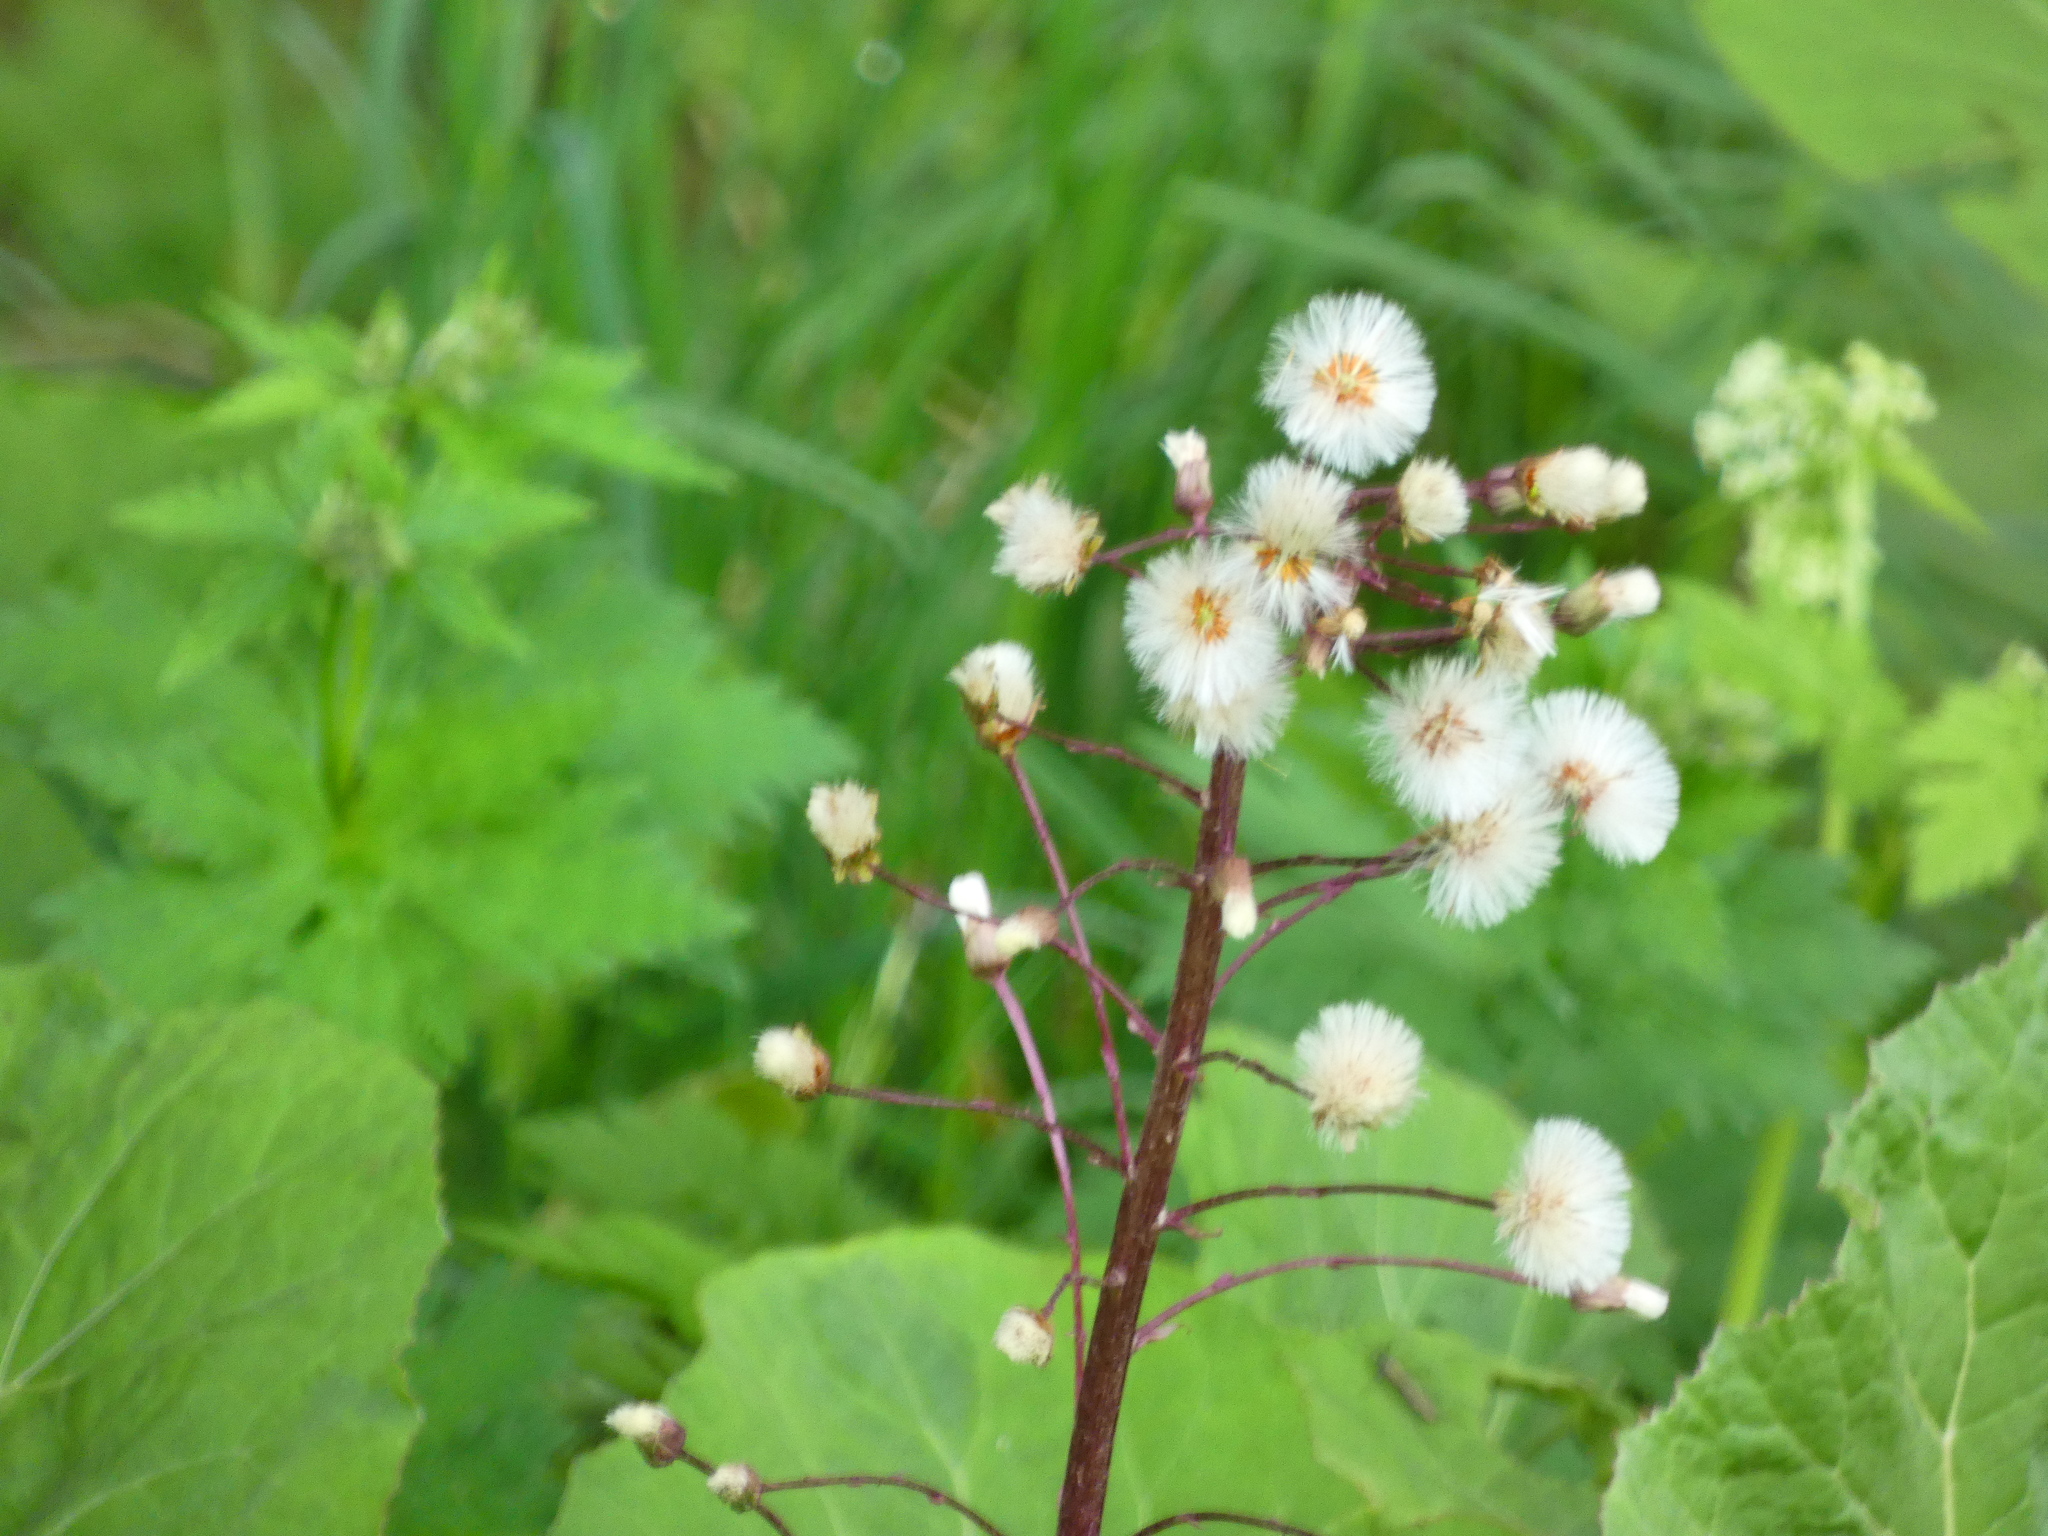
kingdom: Plantae
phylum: Tracheophyta
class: Magnoliopsida
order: Asterales
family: Asteraceae
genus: Petasites
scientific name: Petasites hybridus
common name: Butterbur
